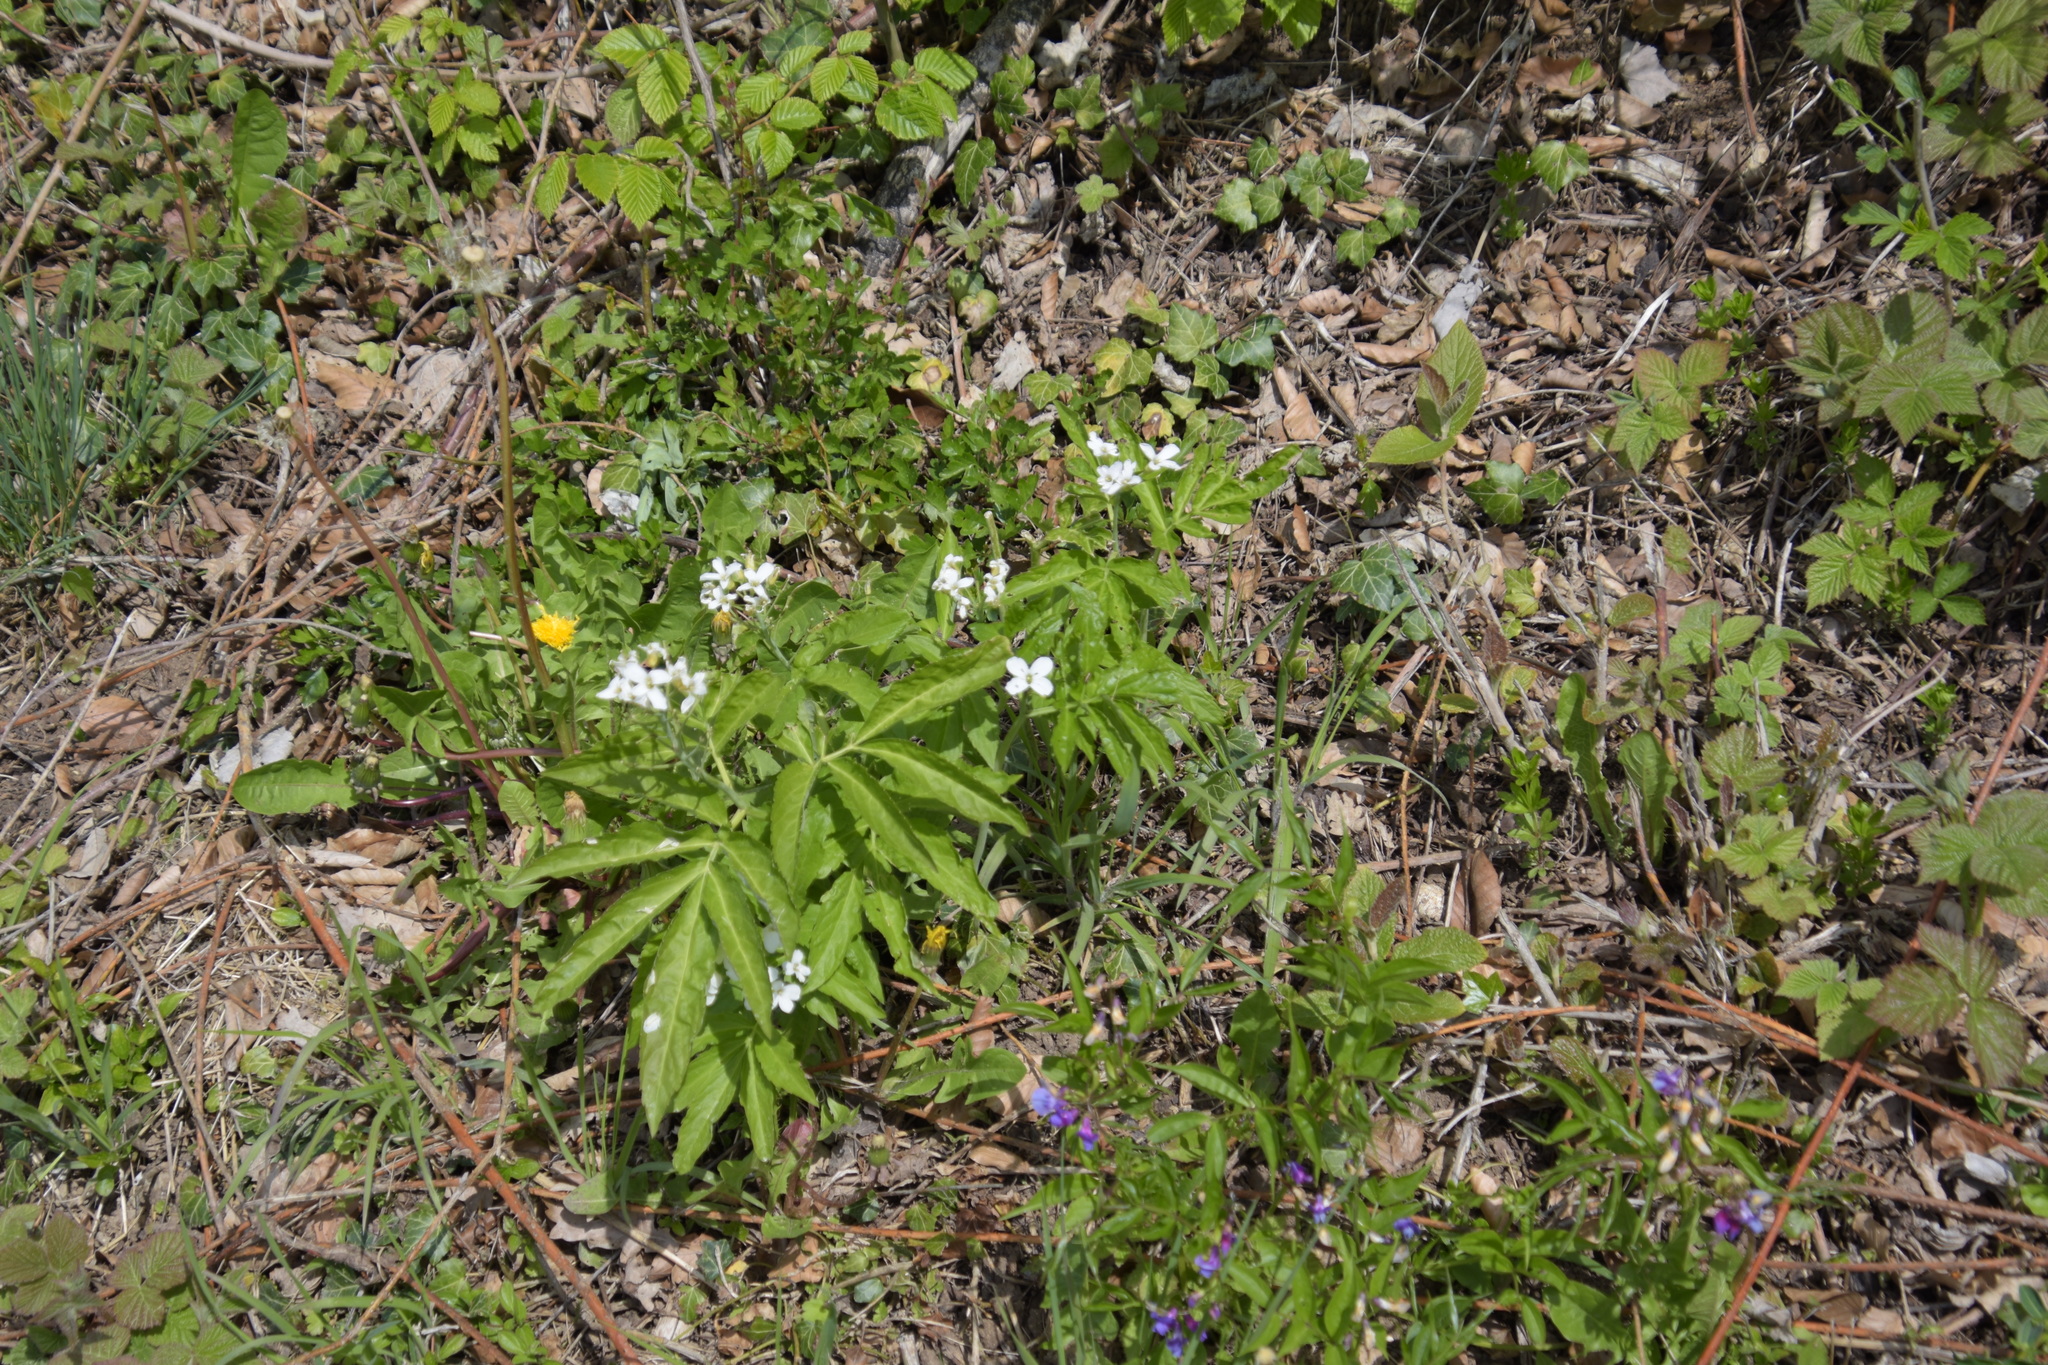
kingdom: Plantae
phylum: Tracheophyta
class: Magnoliopsida
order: Brassicales
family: Brassicaceae
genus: Cardamine
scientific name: Cardamine heptaphylla
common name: Pinnate coralroot
